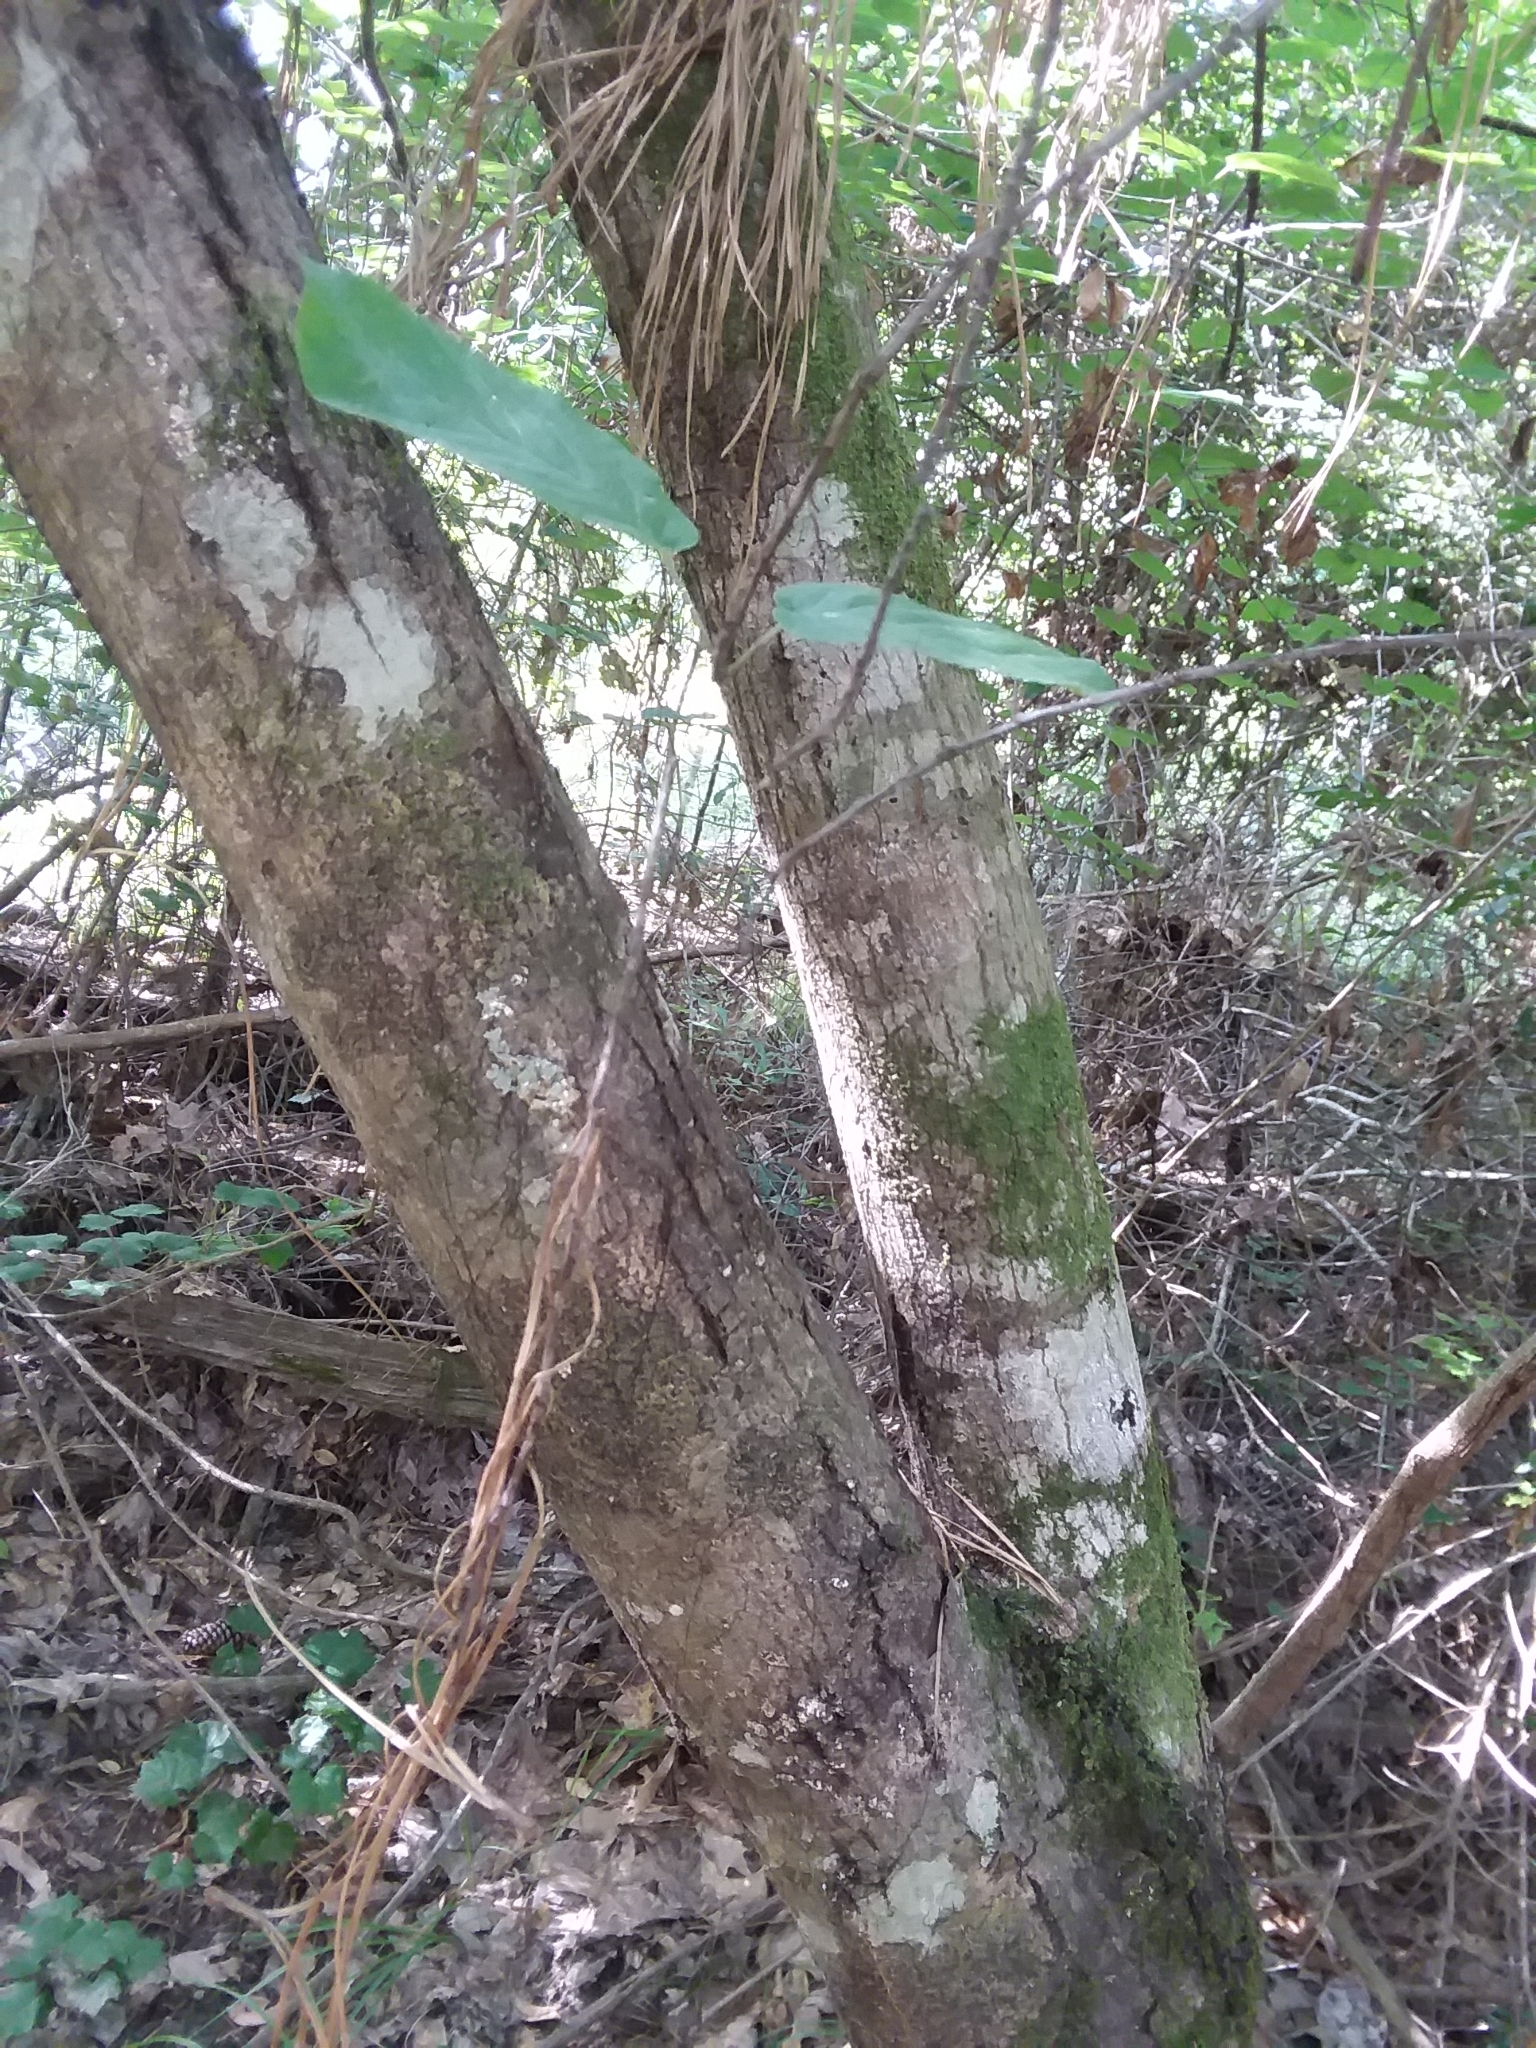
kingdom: Plantae
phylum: Tracheophyta
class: Magnoliopsida
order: Rosales
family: Rosaceae
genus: Amelanchier
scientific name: Amelanchier arborea
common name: Downy serviceberry
